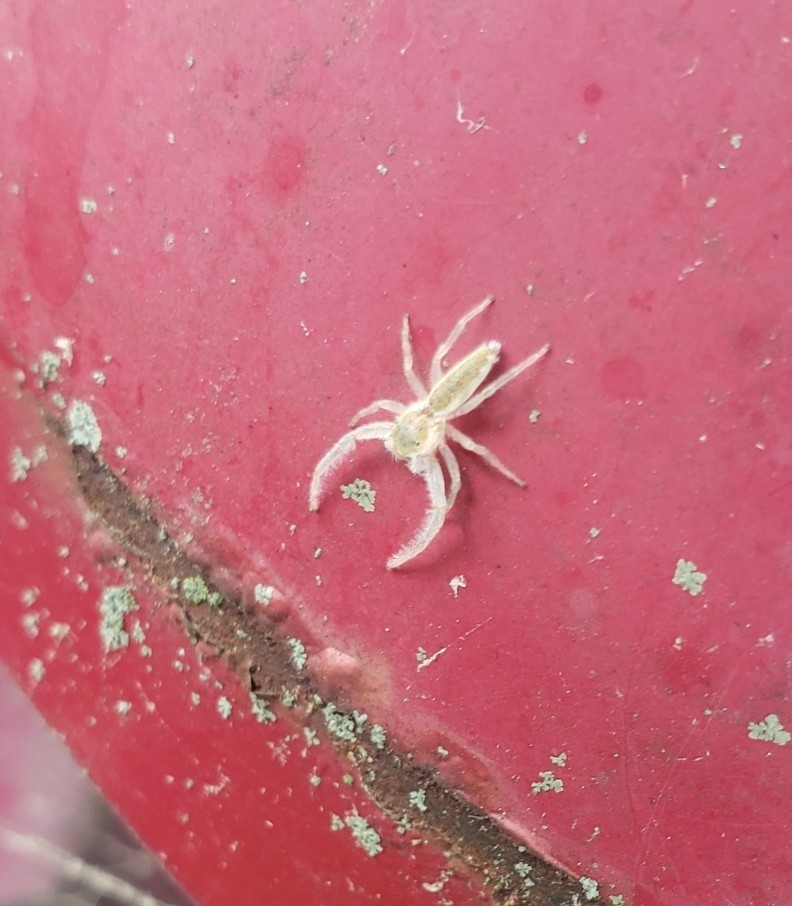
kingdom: Animalia
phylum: Arthropoda
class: Arachnida
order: Araneae
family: Salticidae
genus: Hentzia
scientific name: Hentzia mitrata
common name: White-jawed jumping spider
